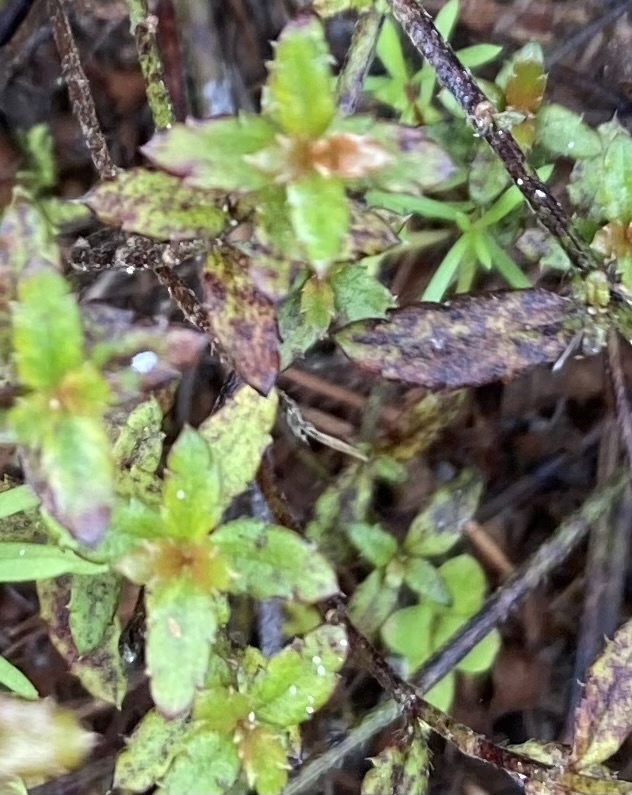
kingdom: Plantae
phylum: Tracheophyta
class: Magnoliopsida
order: Saxifragales
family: Haloragaceae
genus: Gonocarpus
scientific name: Gonocarpus incanus
